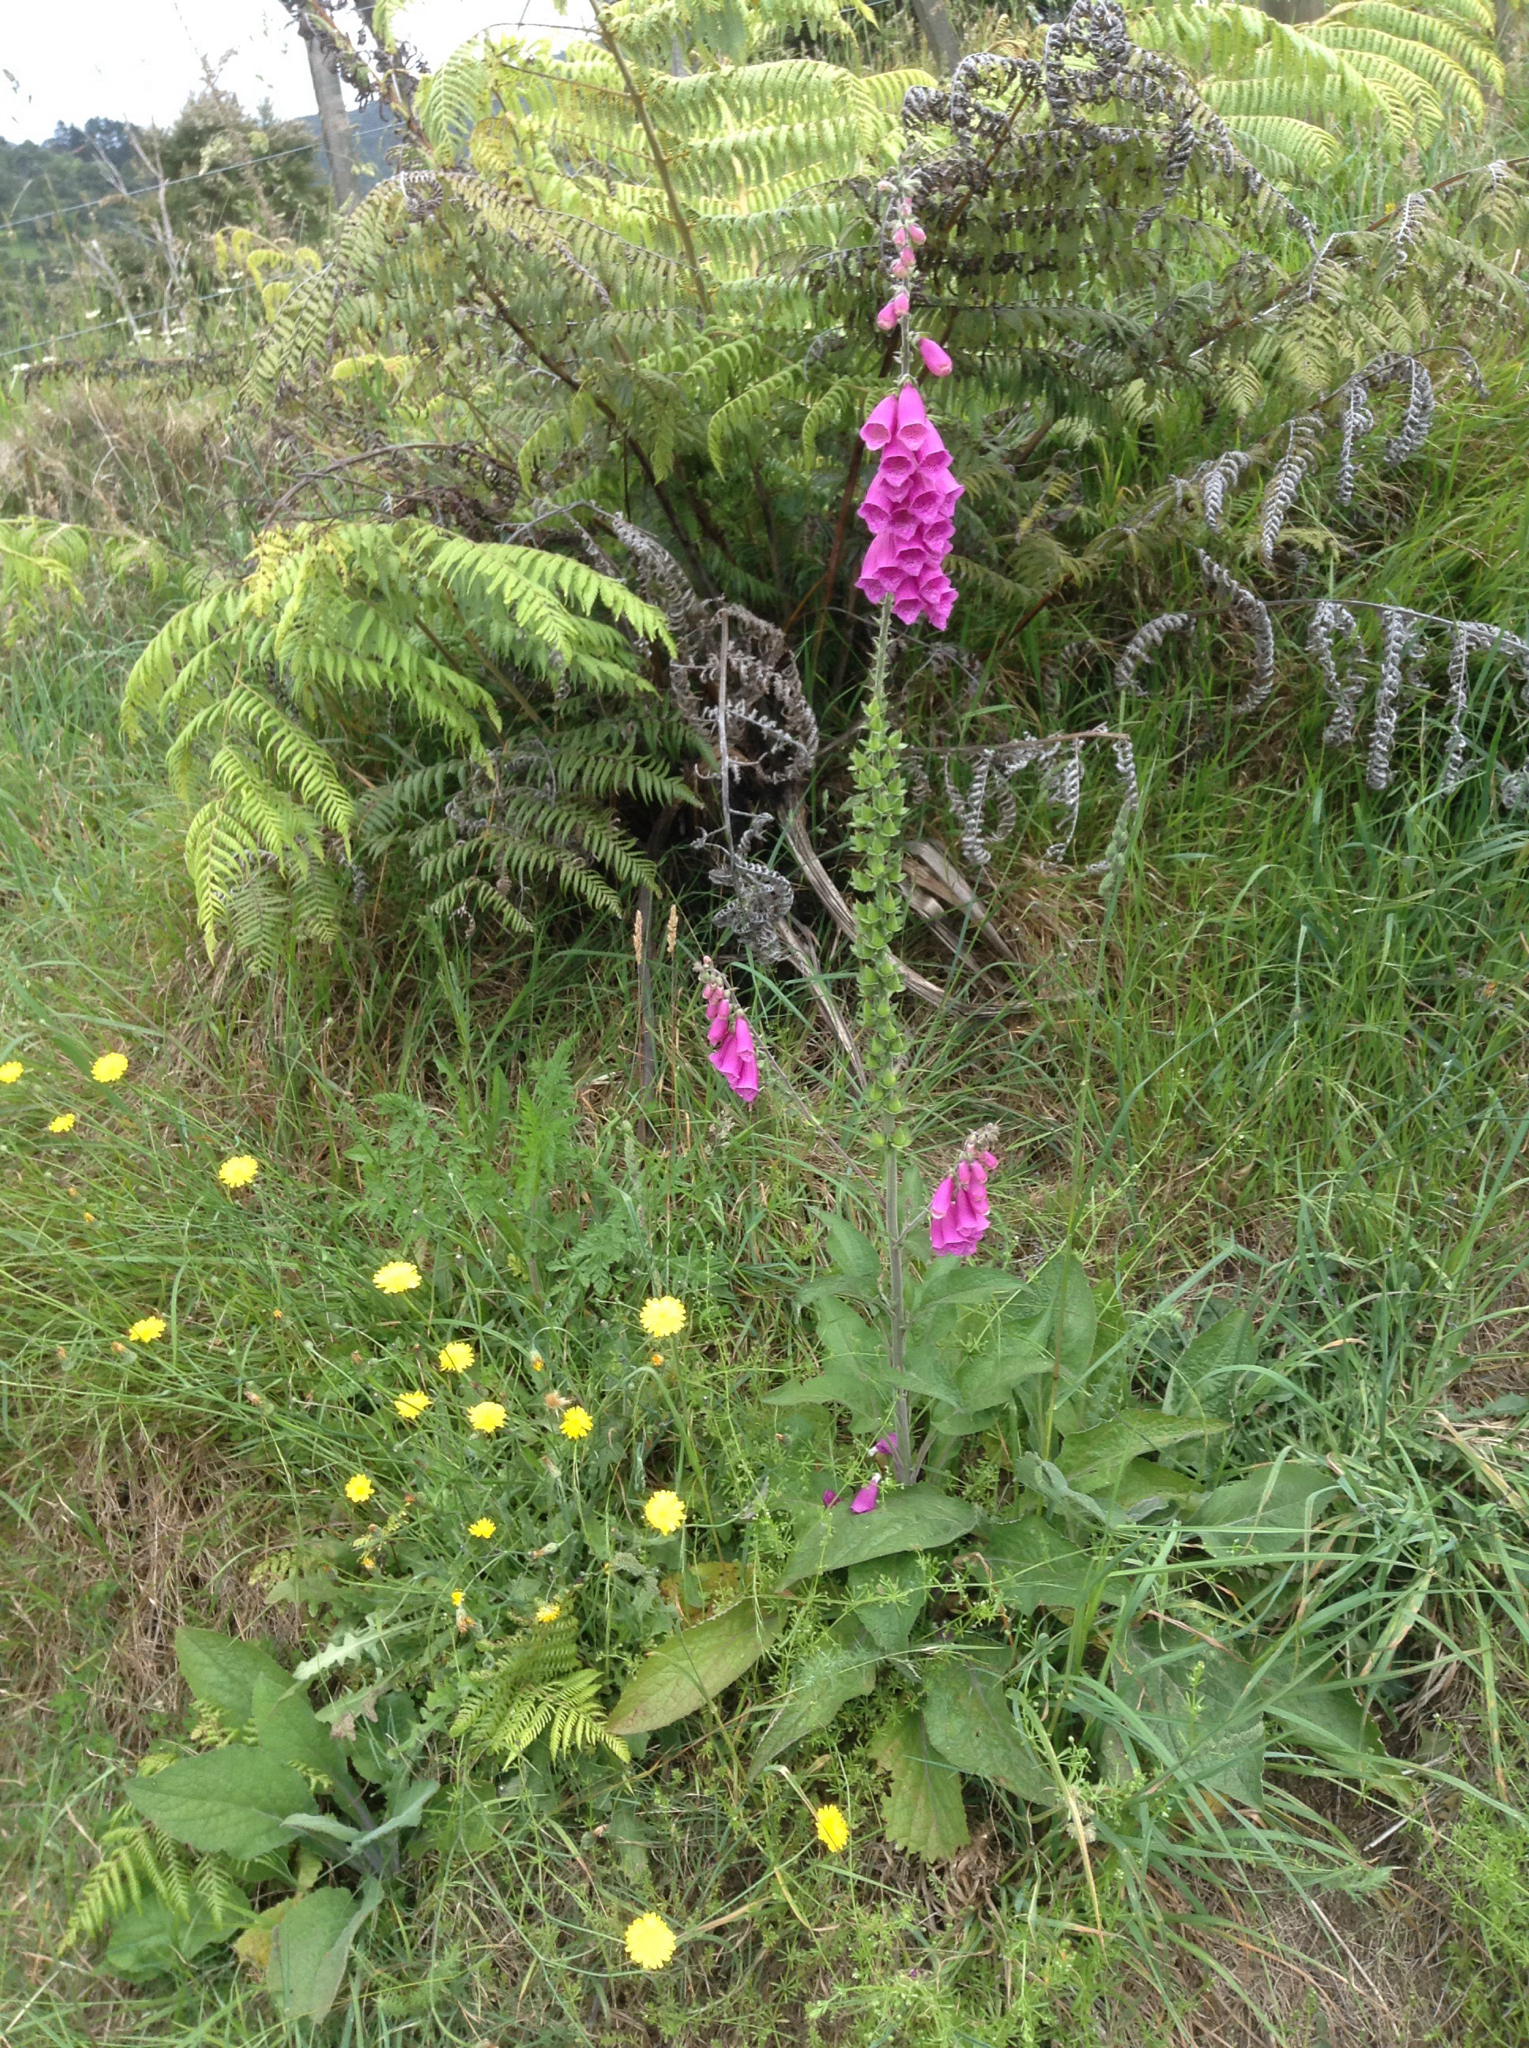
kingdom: Plantae
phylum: Tracheophyta
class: Magnoliopsida
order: Lamiales
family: Plantaginaceae
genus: Digitalis
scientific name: Digitalis purpurea
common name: Foxglove
